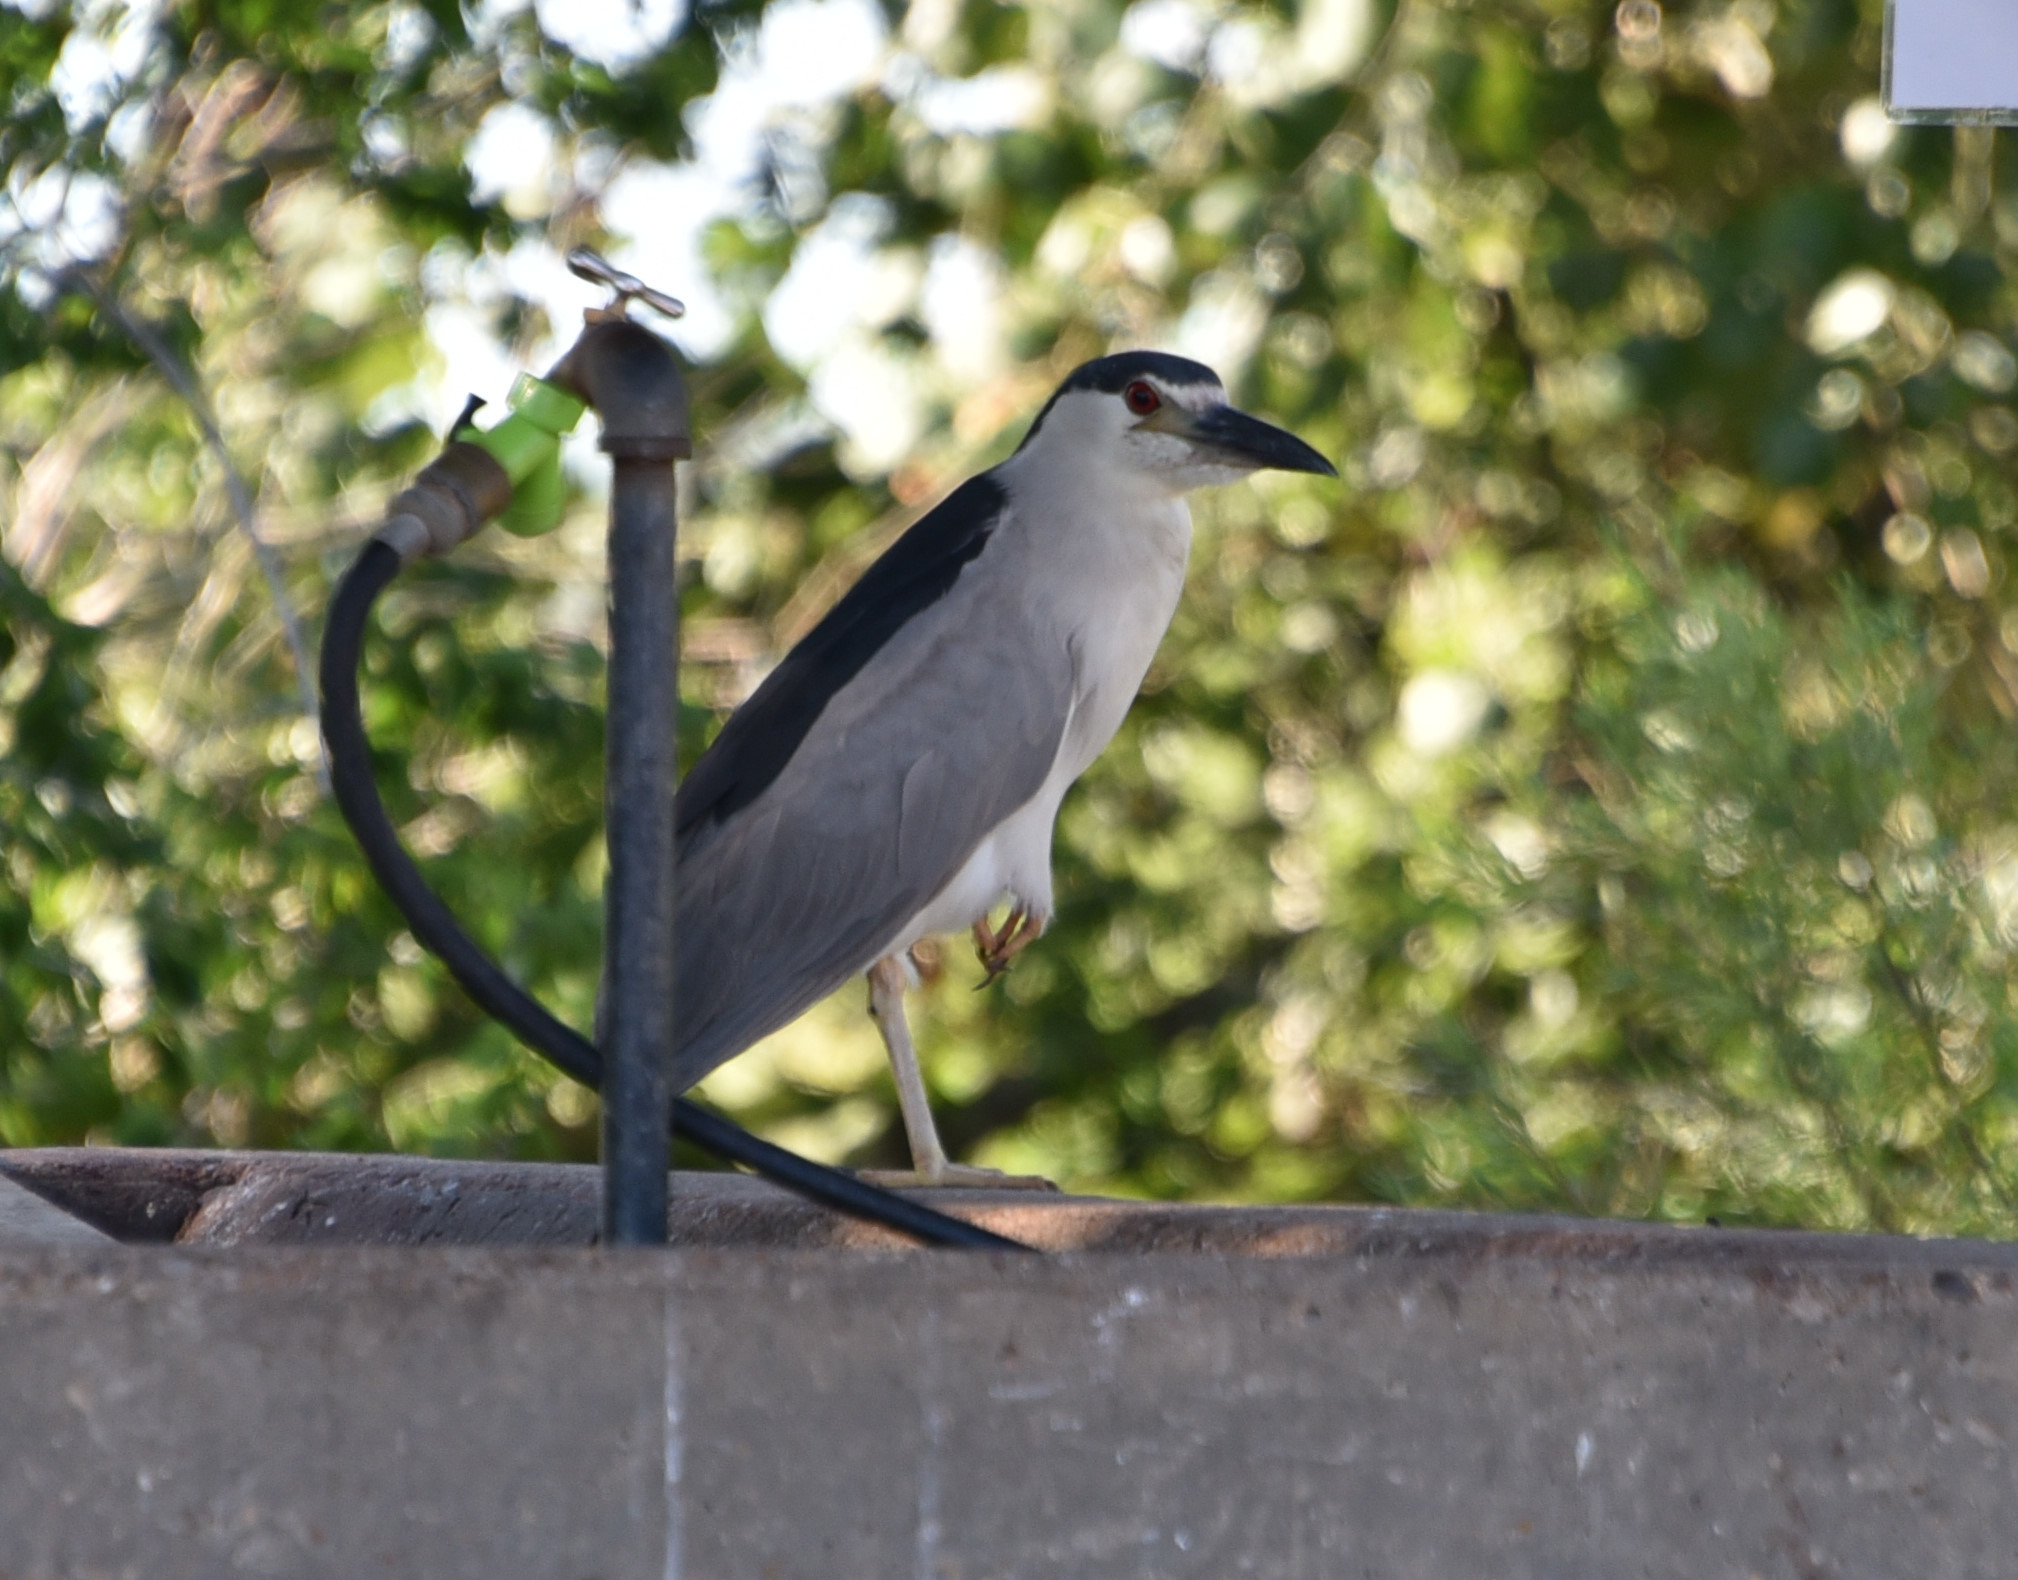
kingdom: Animalia
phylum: Chordata
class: Aves
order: Pelecaniformes
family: Ardeidae
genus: Nycticorax
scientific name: Nycticorax nycticorax
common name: Black-crowned night heron
